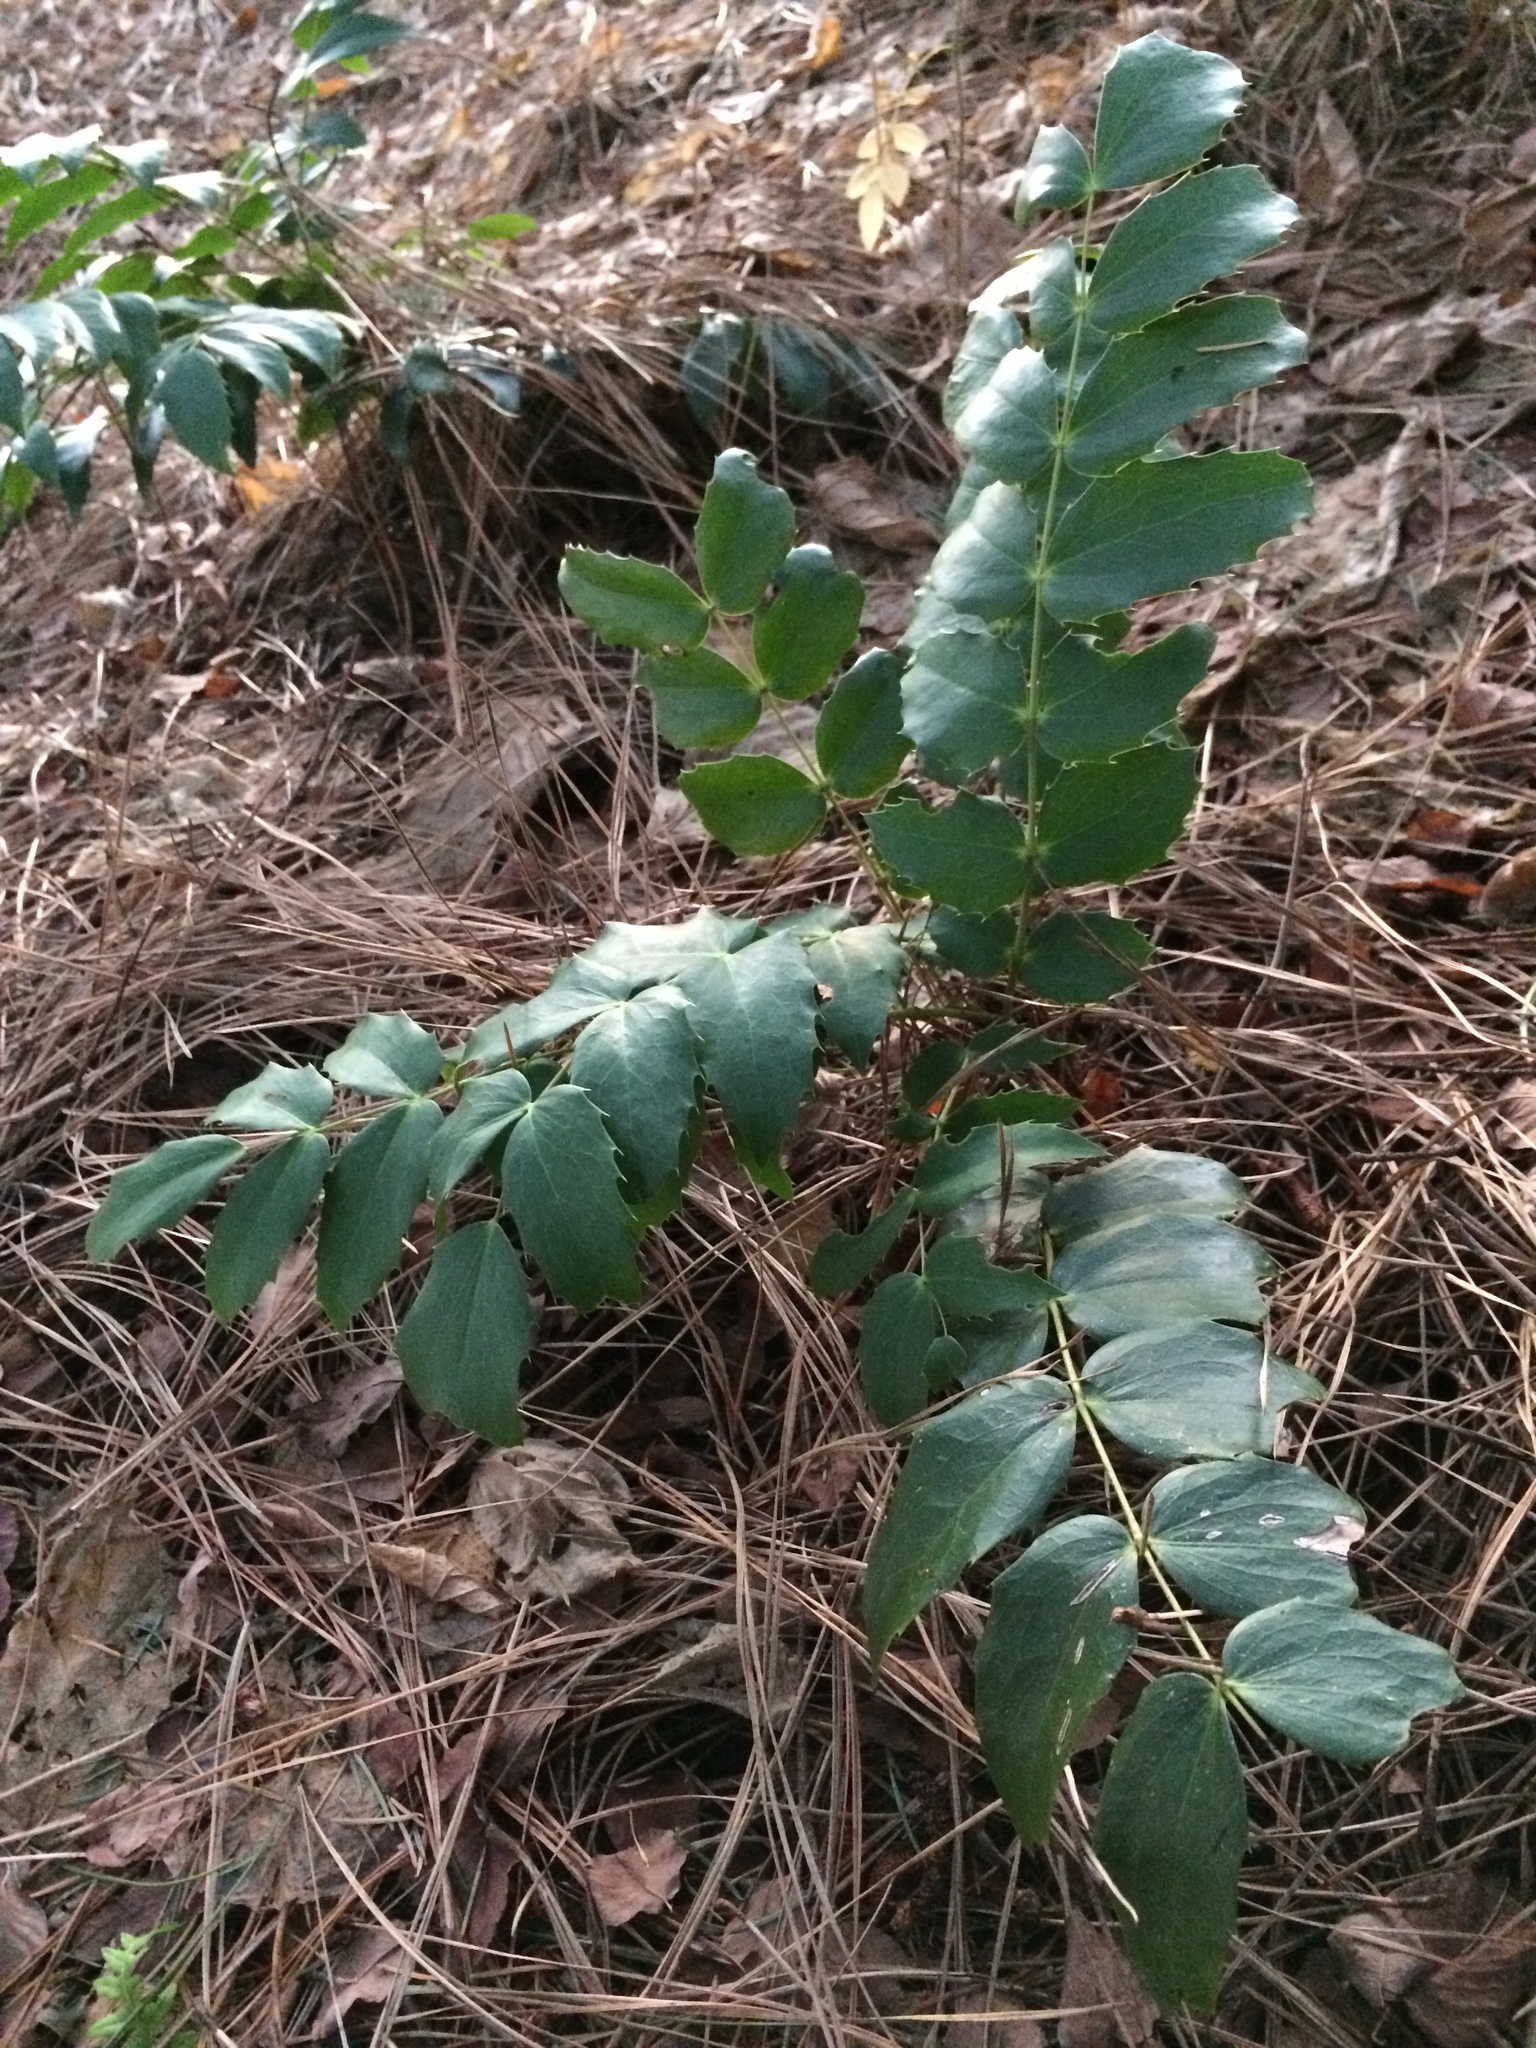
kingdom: Plantae
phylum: Tracheophyta
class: Magnoliopsida
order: Ranunculales
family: Berberidaceae
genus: Mahonia
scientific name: Mahonia nervosa
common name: Cascade oregon-grape
